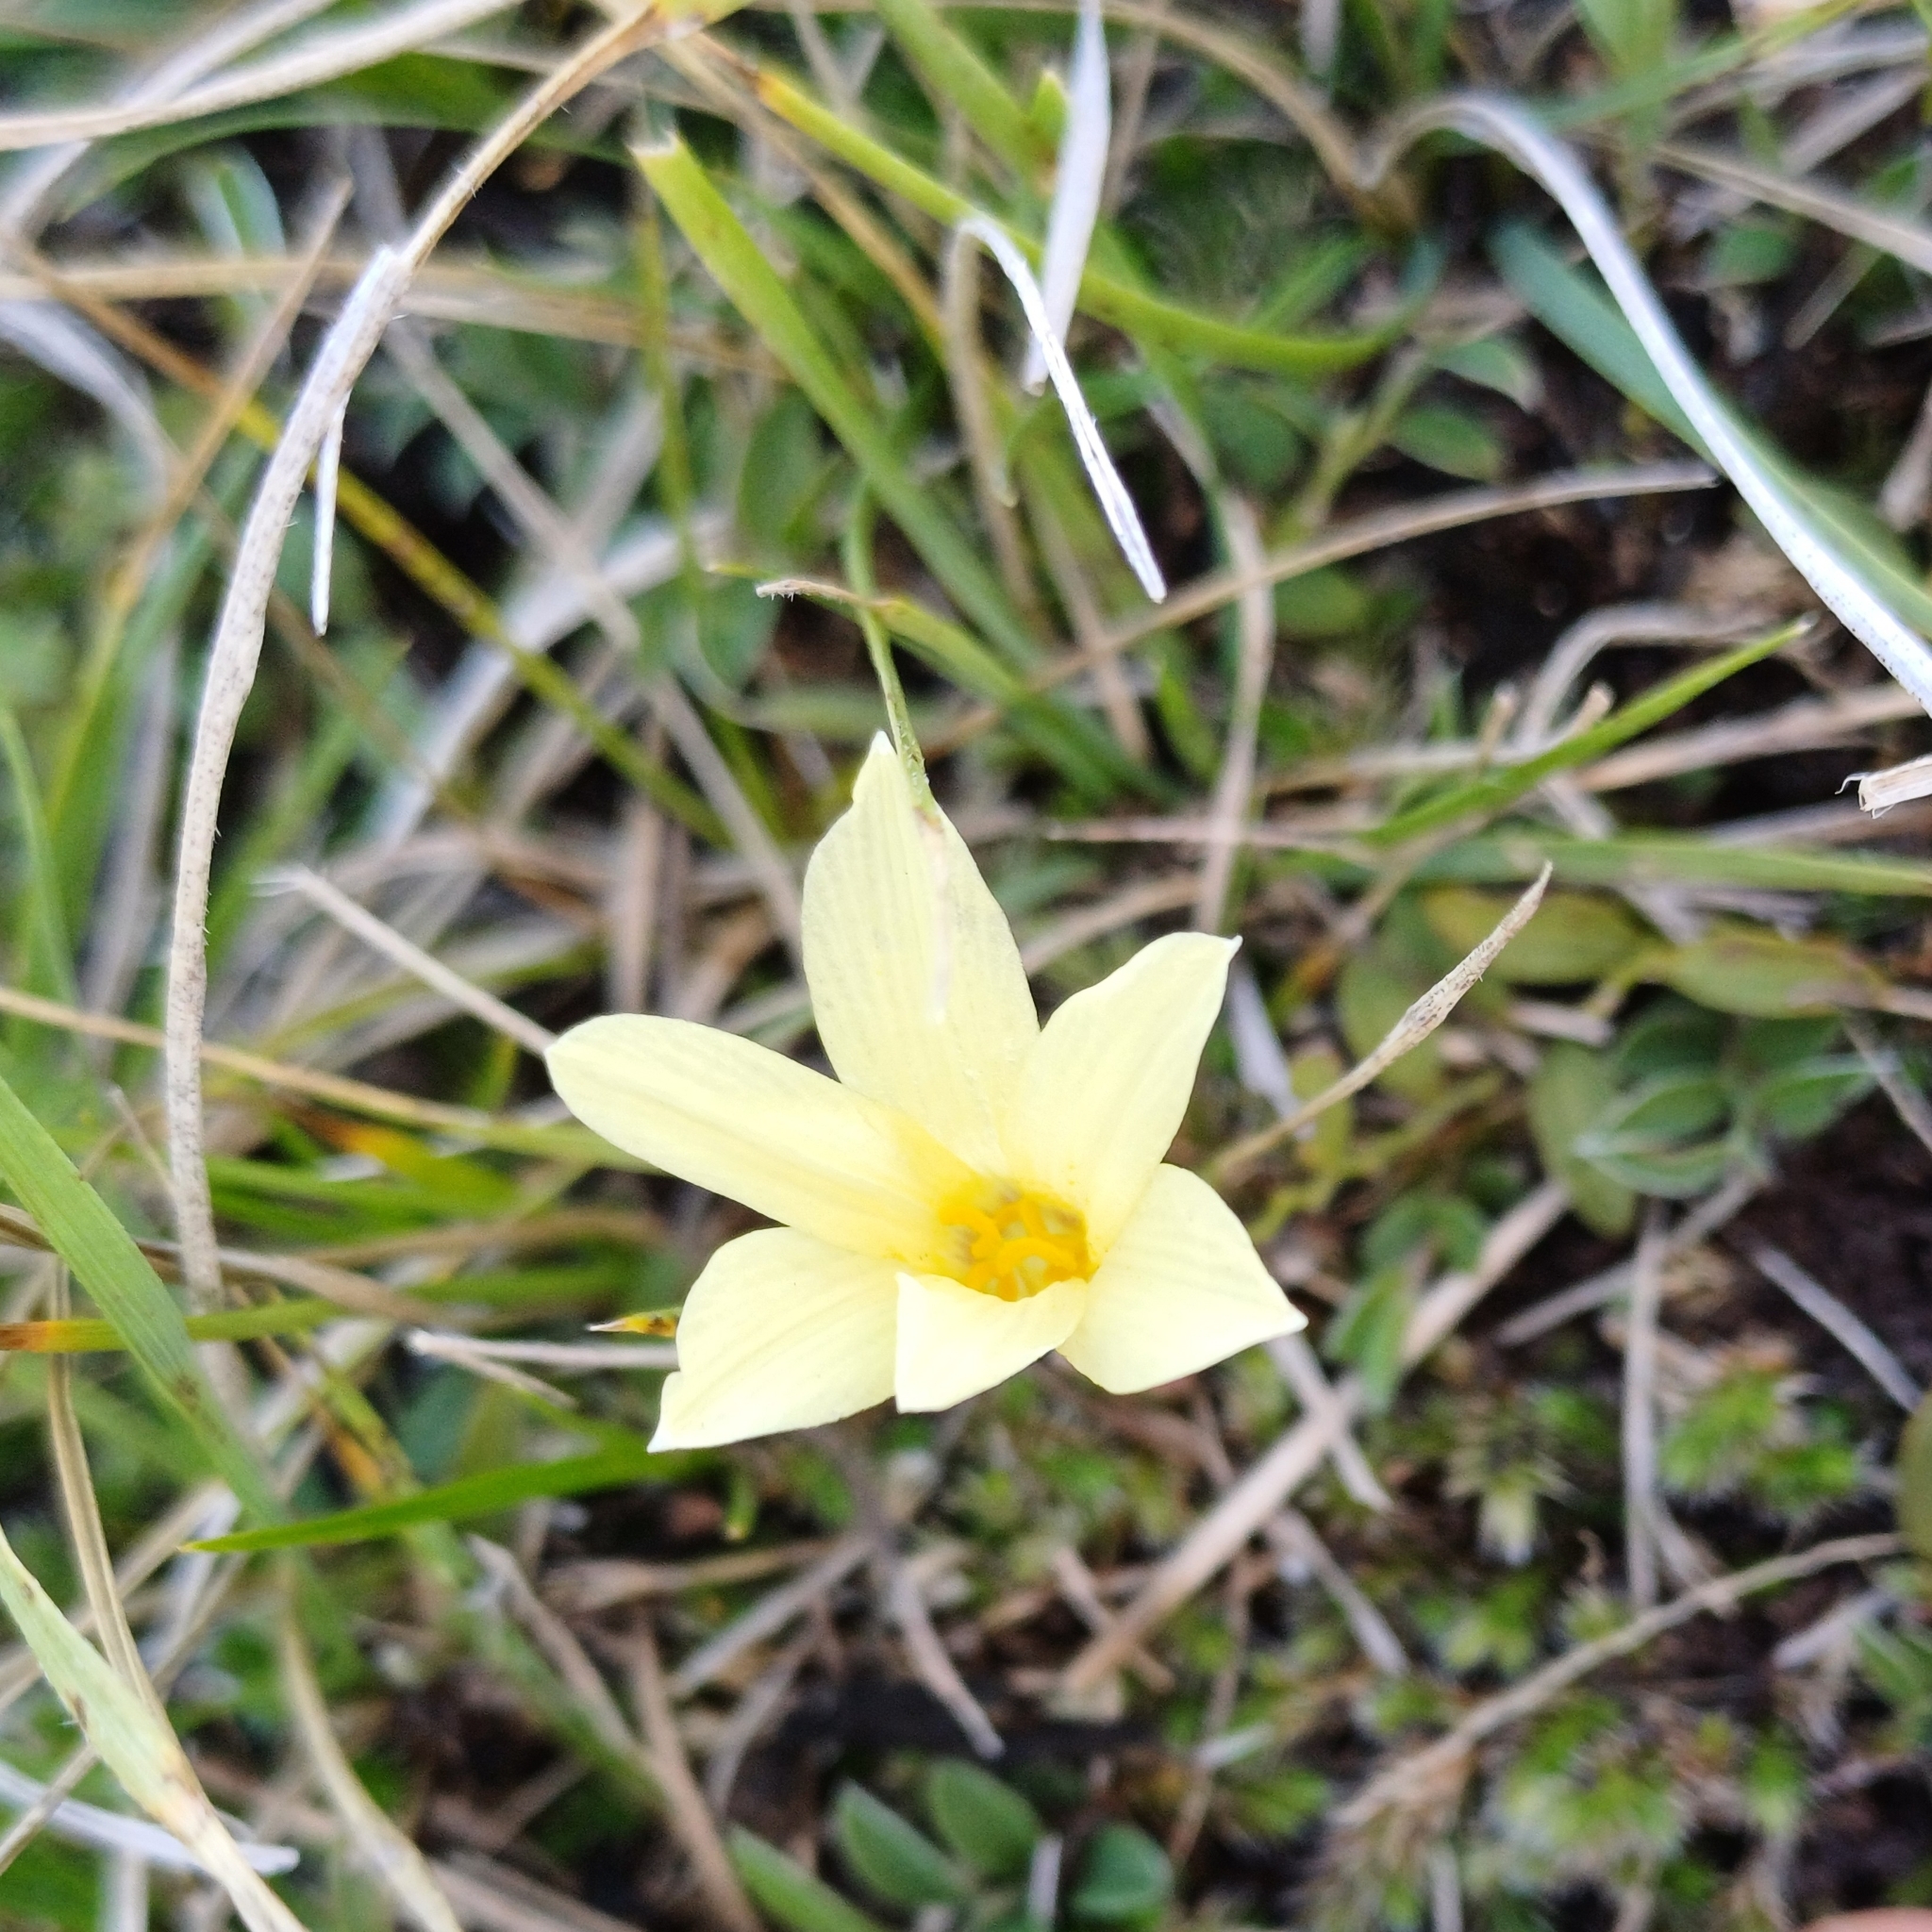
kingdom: Plantae
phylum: Tracheophyta
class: Liliopsida
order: Asparagales
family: Amaryllidaceae
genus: Zephyranthes
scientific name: Zephyranthes americana
